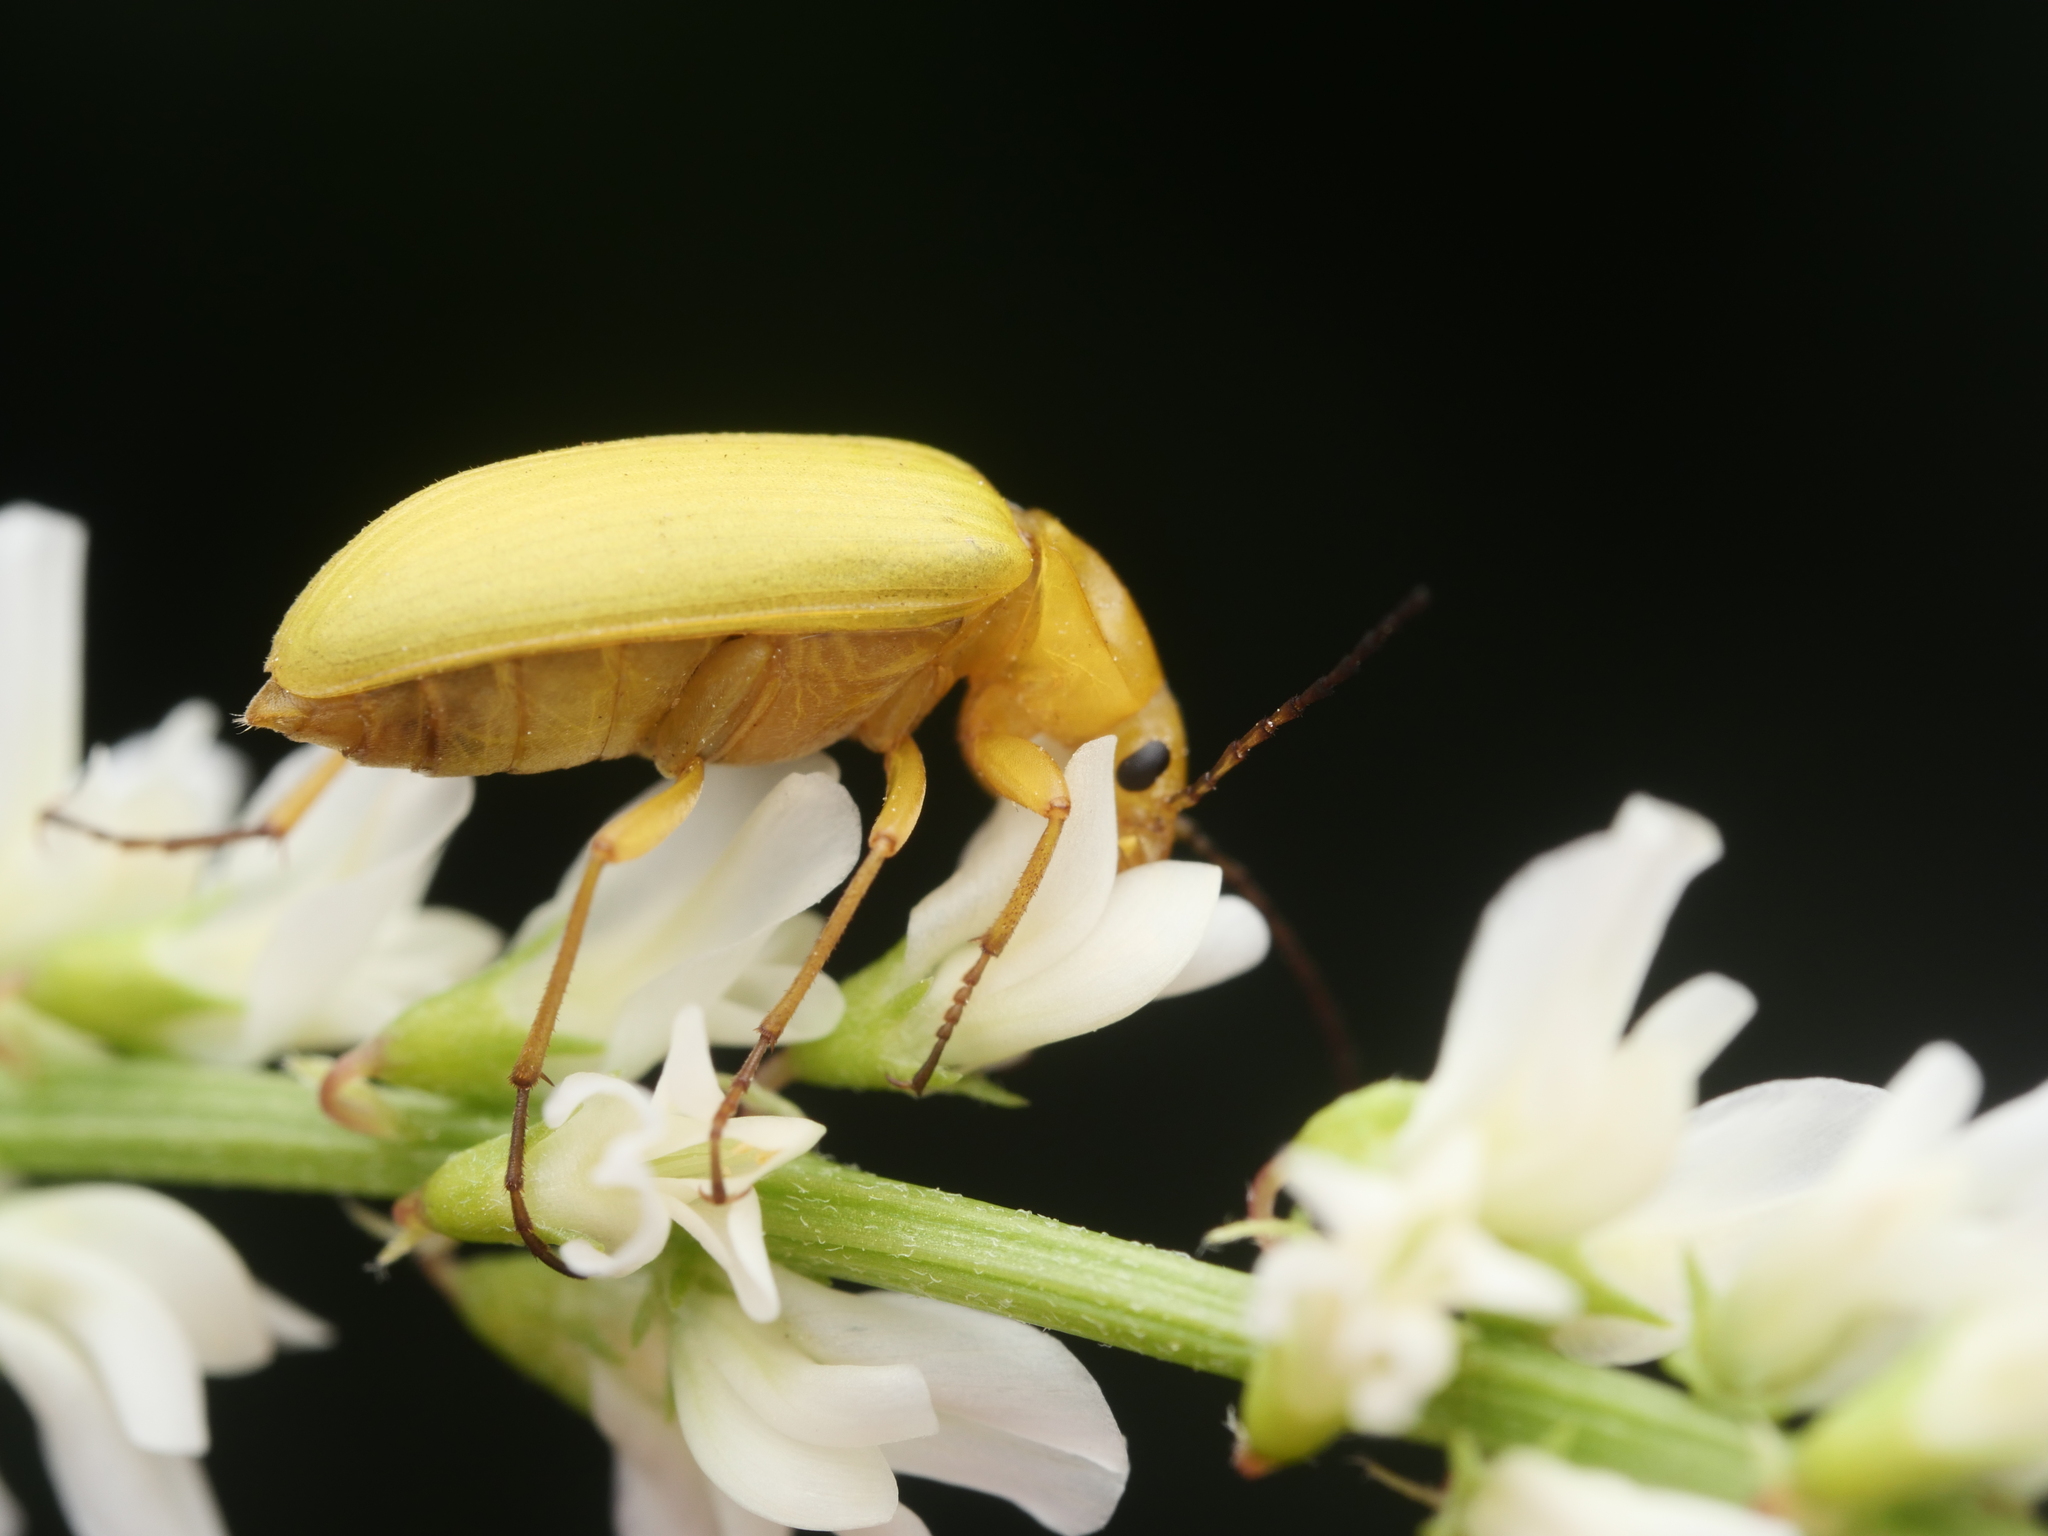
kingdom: Animalia
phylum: Arthropoda
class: Insecta
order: Coleoptera
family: Tenebrionidae
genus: Cteniopus
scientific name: Cteniopus sulphureus
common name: Sulphur beetle
